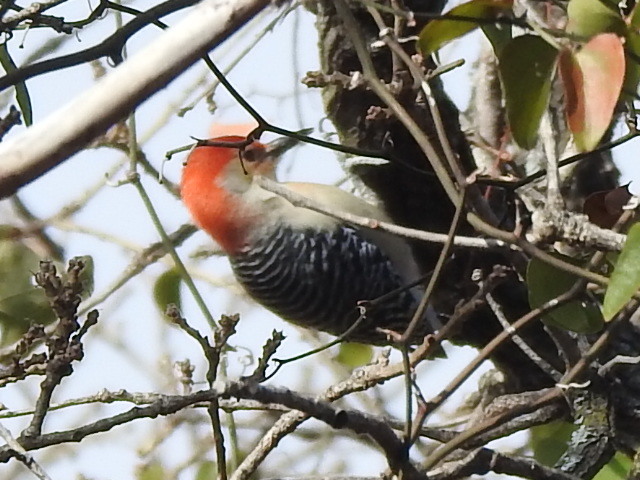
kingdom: Animalia
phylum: Chordata
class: Aves
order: Piciformes
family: Picidae
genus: Melanerpes
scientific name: Melanerpes carolinus
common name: Red-bellied woodpecker
